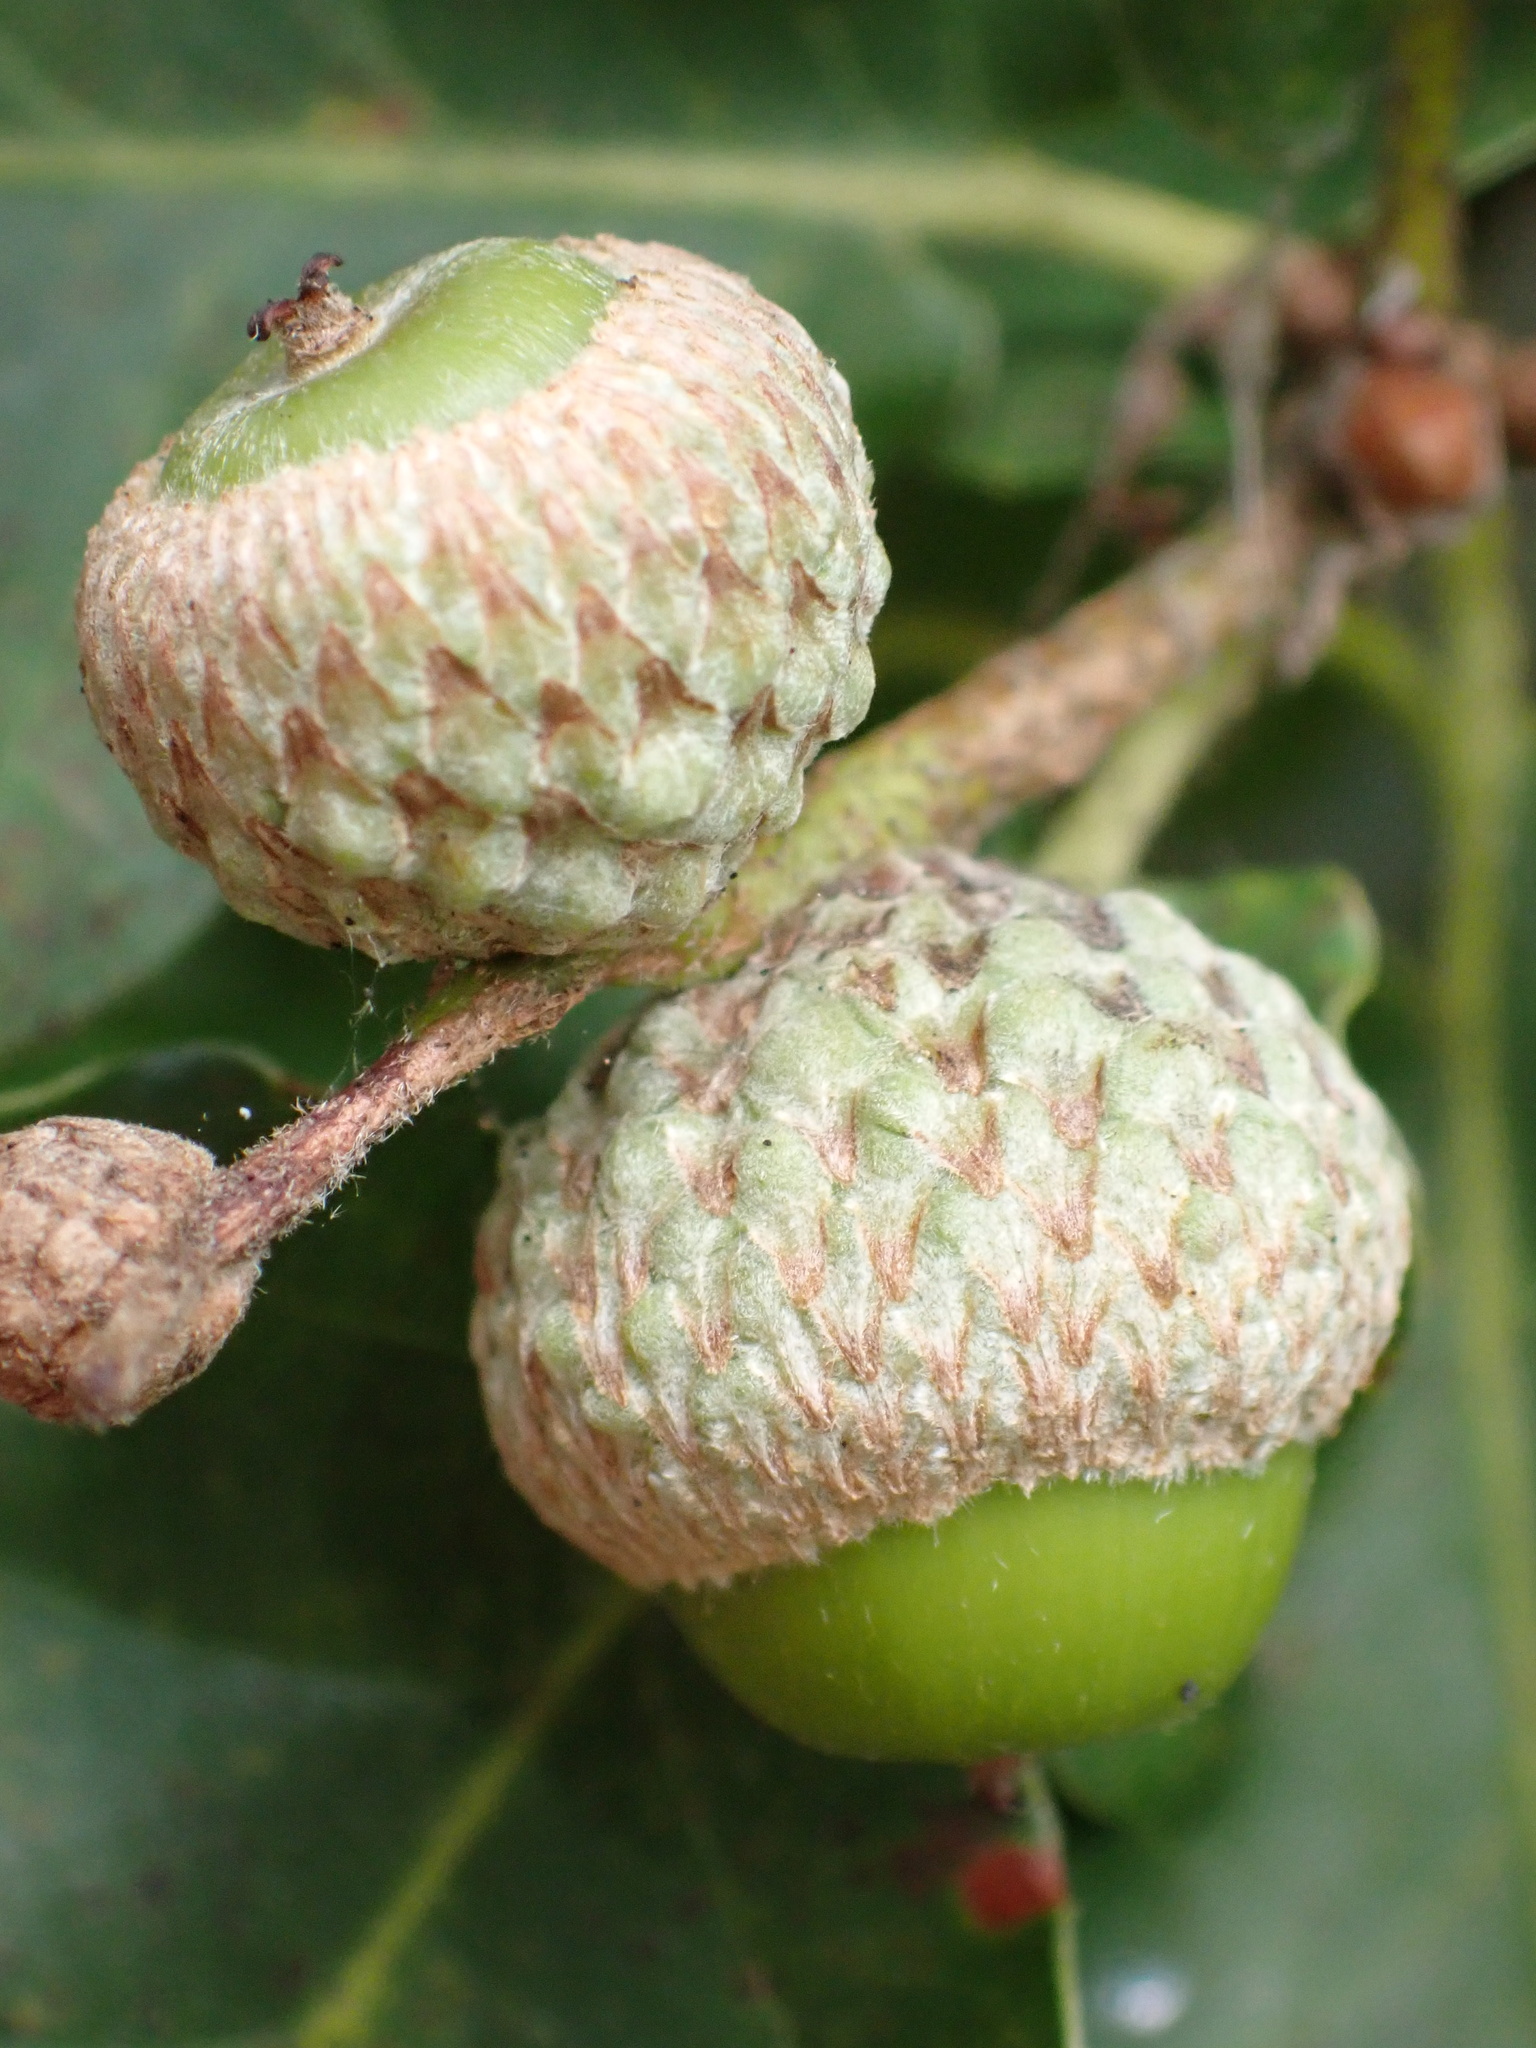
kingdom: Plantae
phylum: Tracheophyta
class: Magnoliopsida
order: Fagales
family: Fagaceae
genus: Quercus
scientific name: Quercus robur
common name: Pedunculate oak
